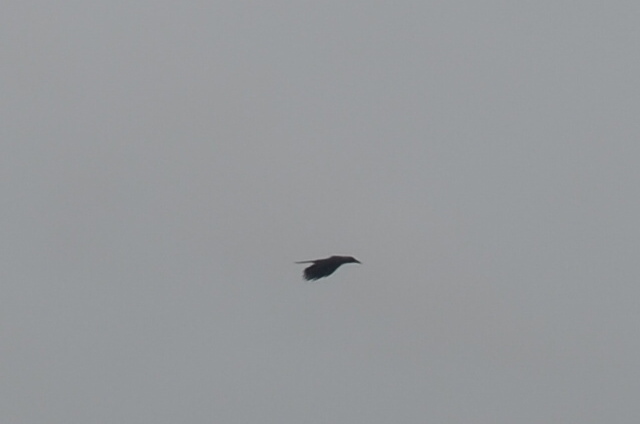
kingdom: Animalia
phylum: Chordata
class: Aves
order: Passeriformes
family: Corvidae
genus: Corvus
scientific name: Corvus splendens
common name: House crow
